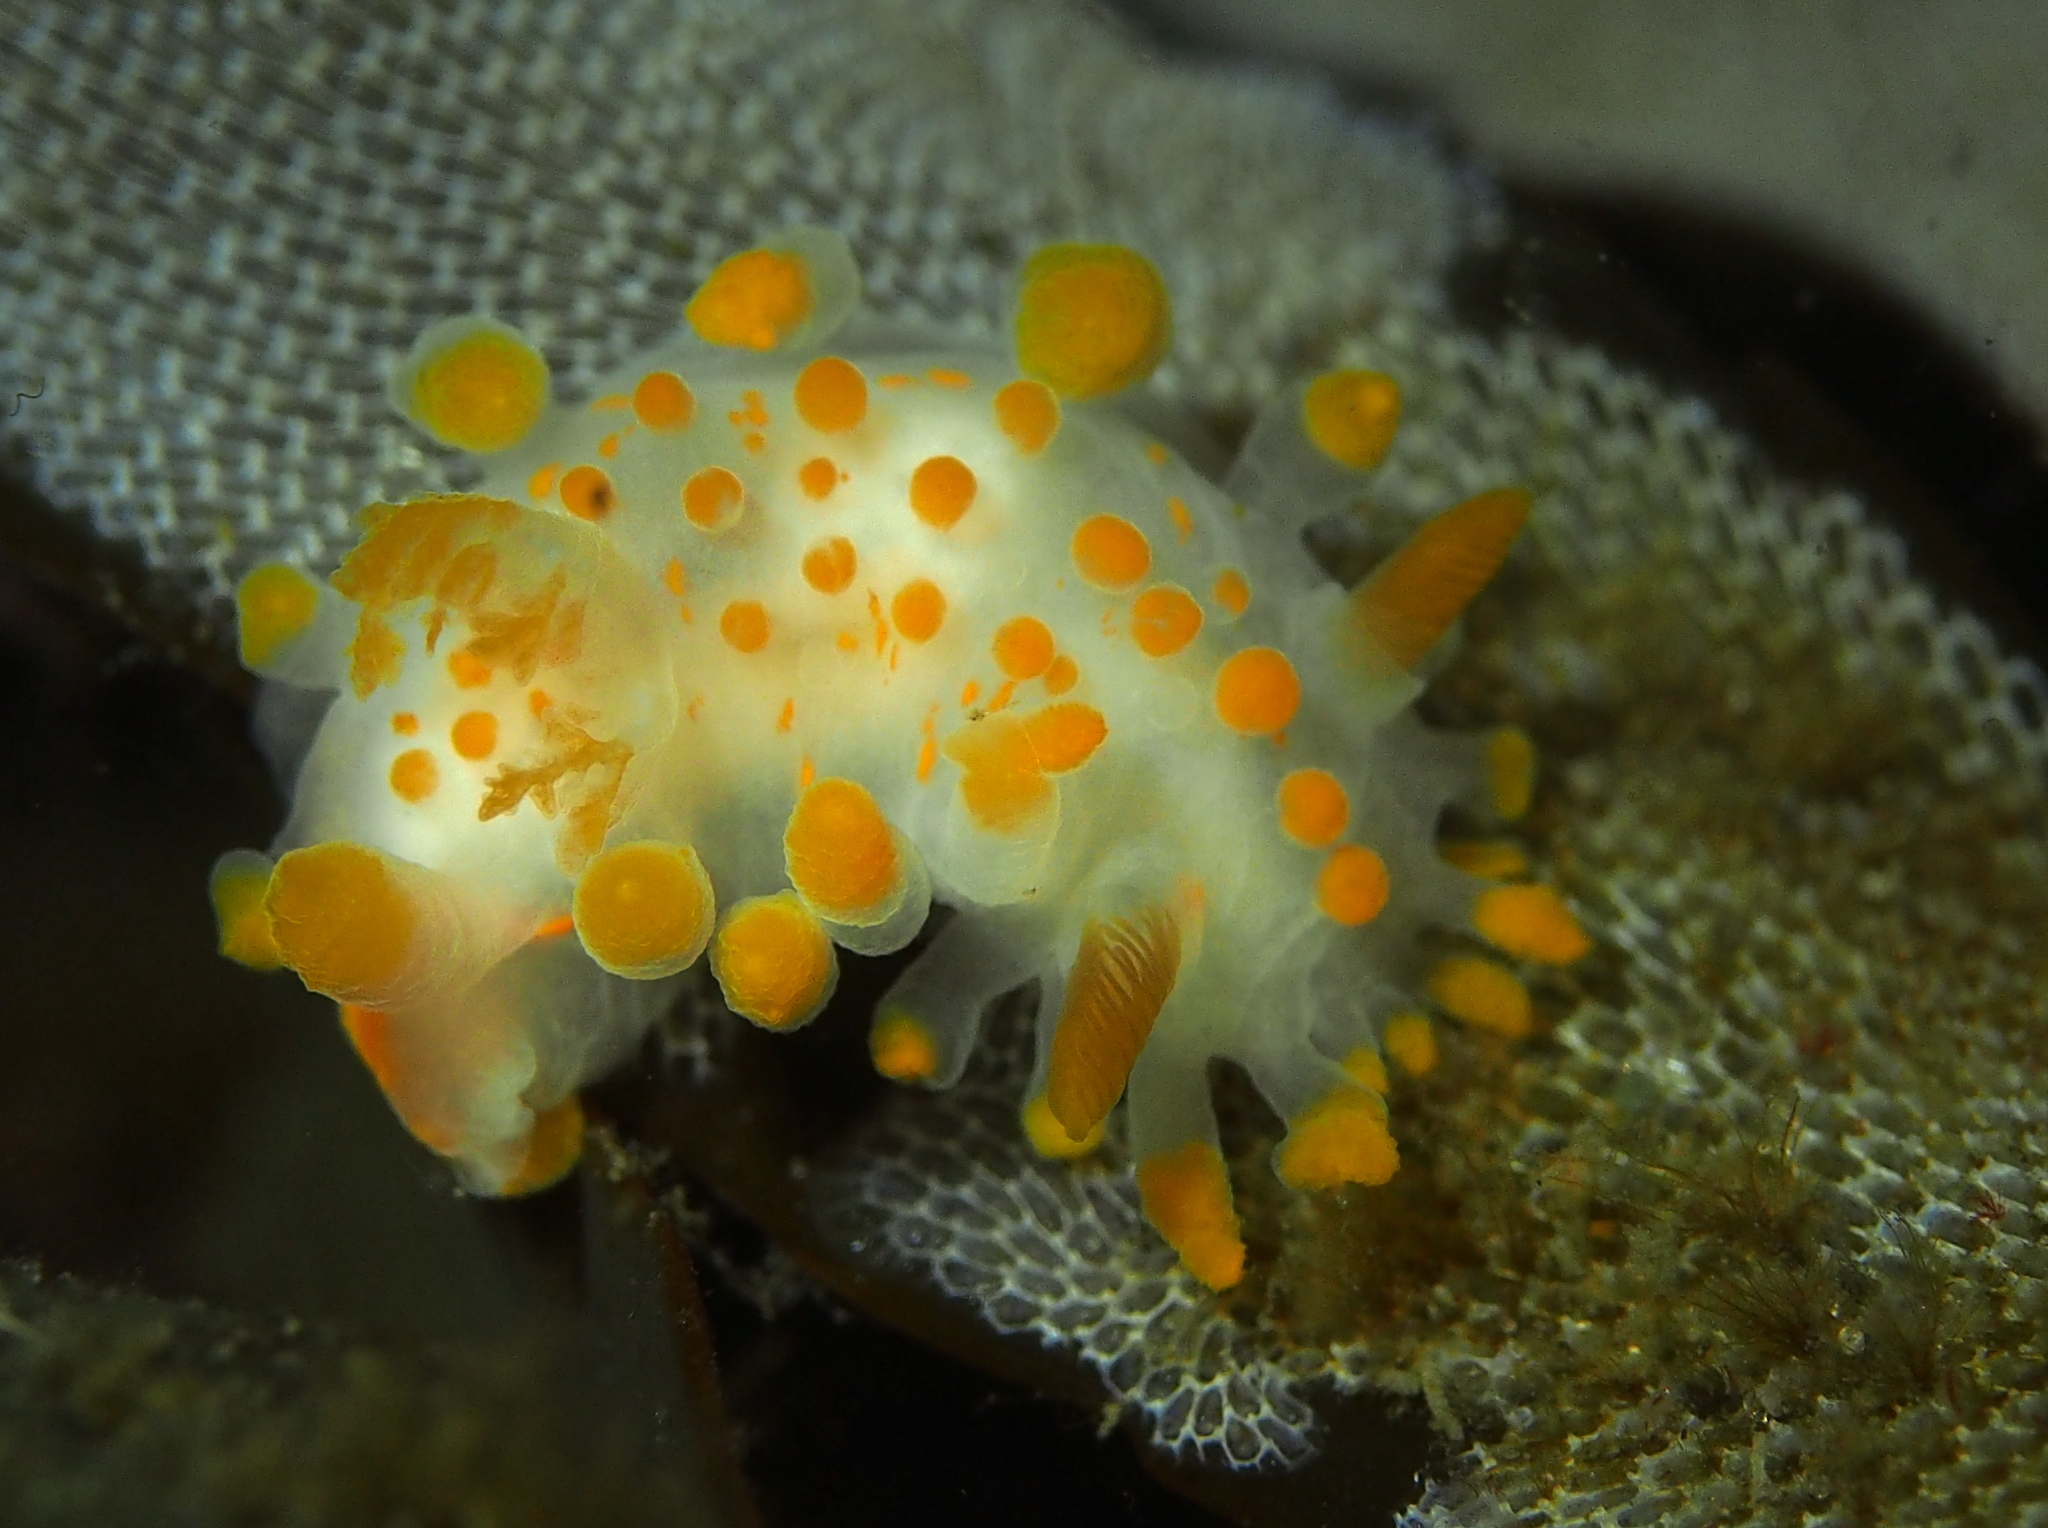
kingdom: Animalia
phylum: Mollusca
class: Gastropoda
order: Nudibranchia
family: Polyceridae
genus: Limacia
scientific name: Limacia clavigera
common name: Orange-clubbed sea slug
